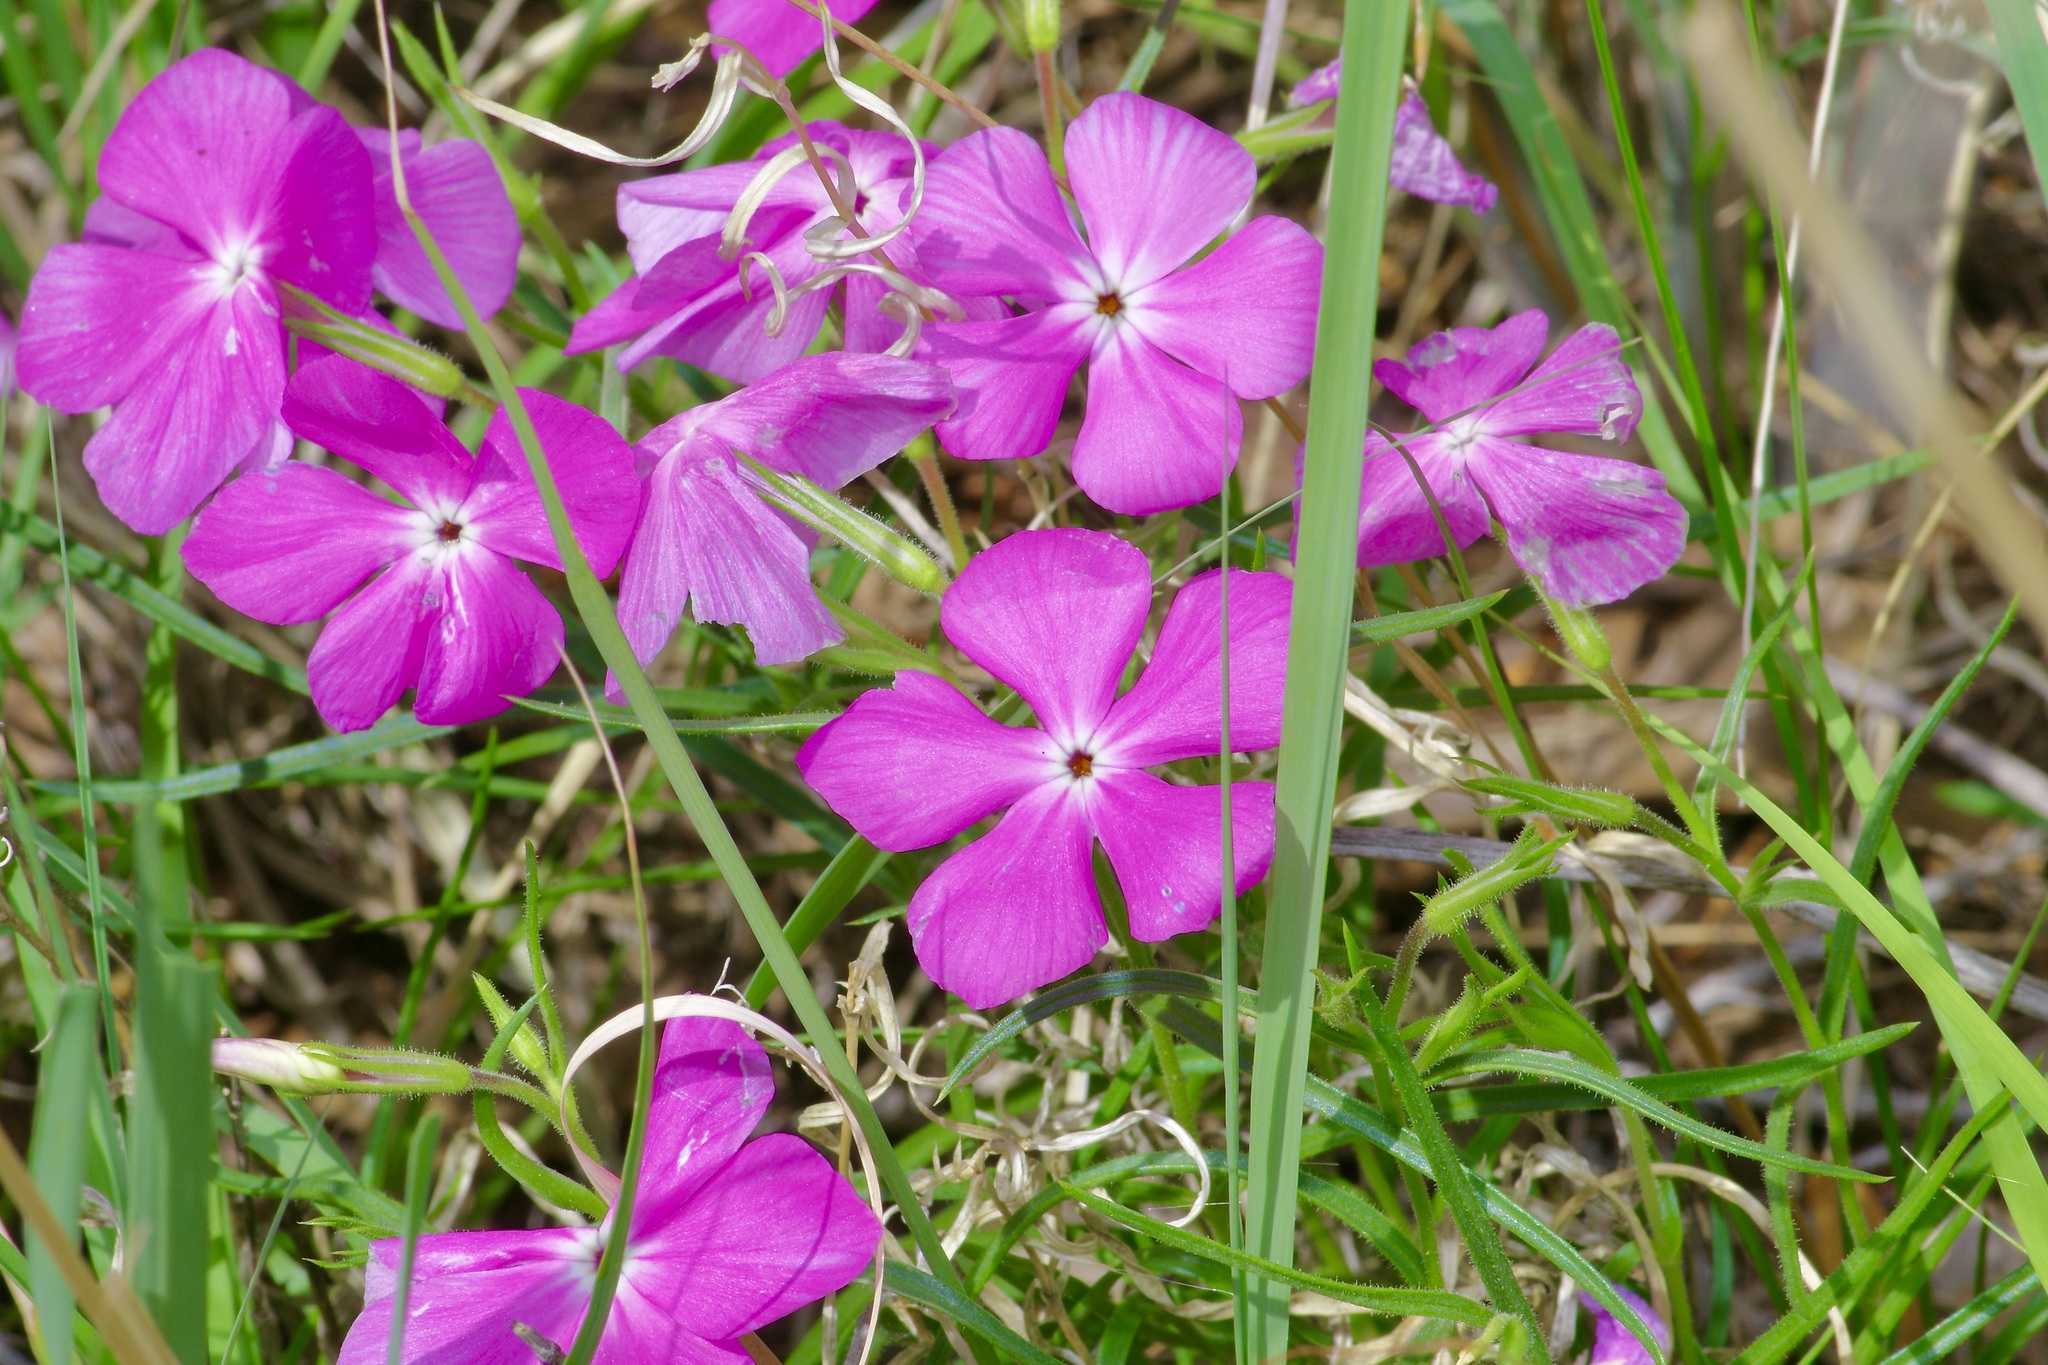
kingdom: Plantae
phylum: Tracheophyta
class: Magnoliopsida
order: Ericales
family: Polemoniaceae
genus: Phlox
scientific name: Phlox nana
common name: Santa fe phlox
